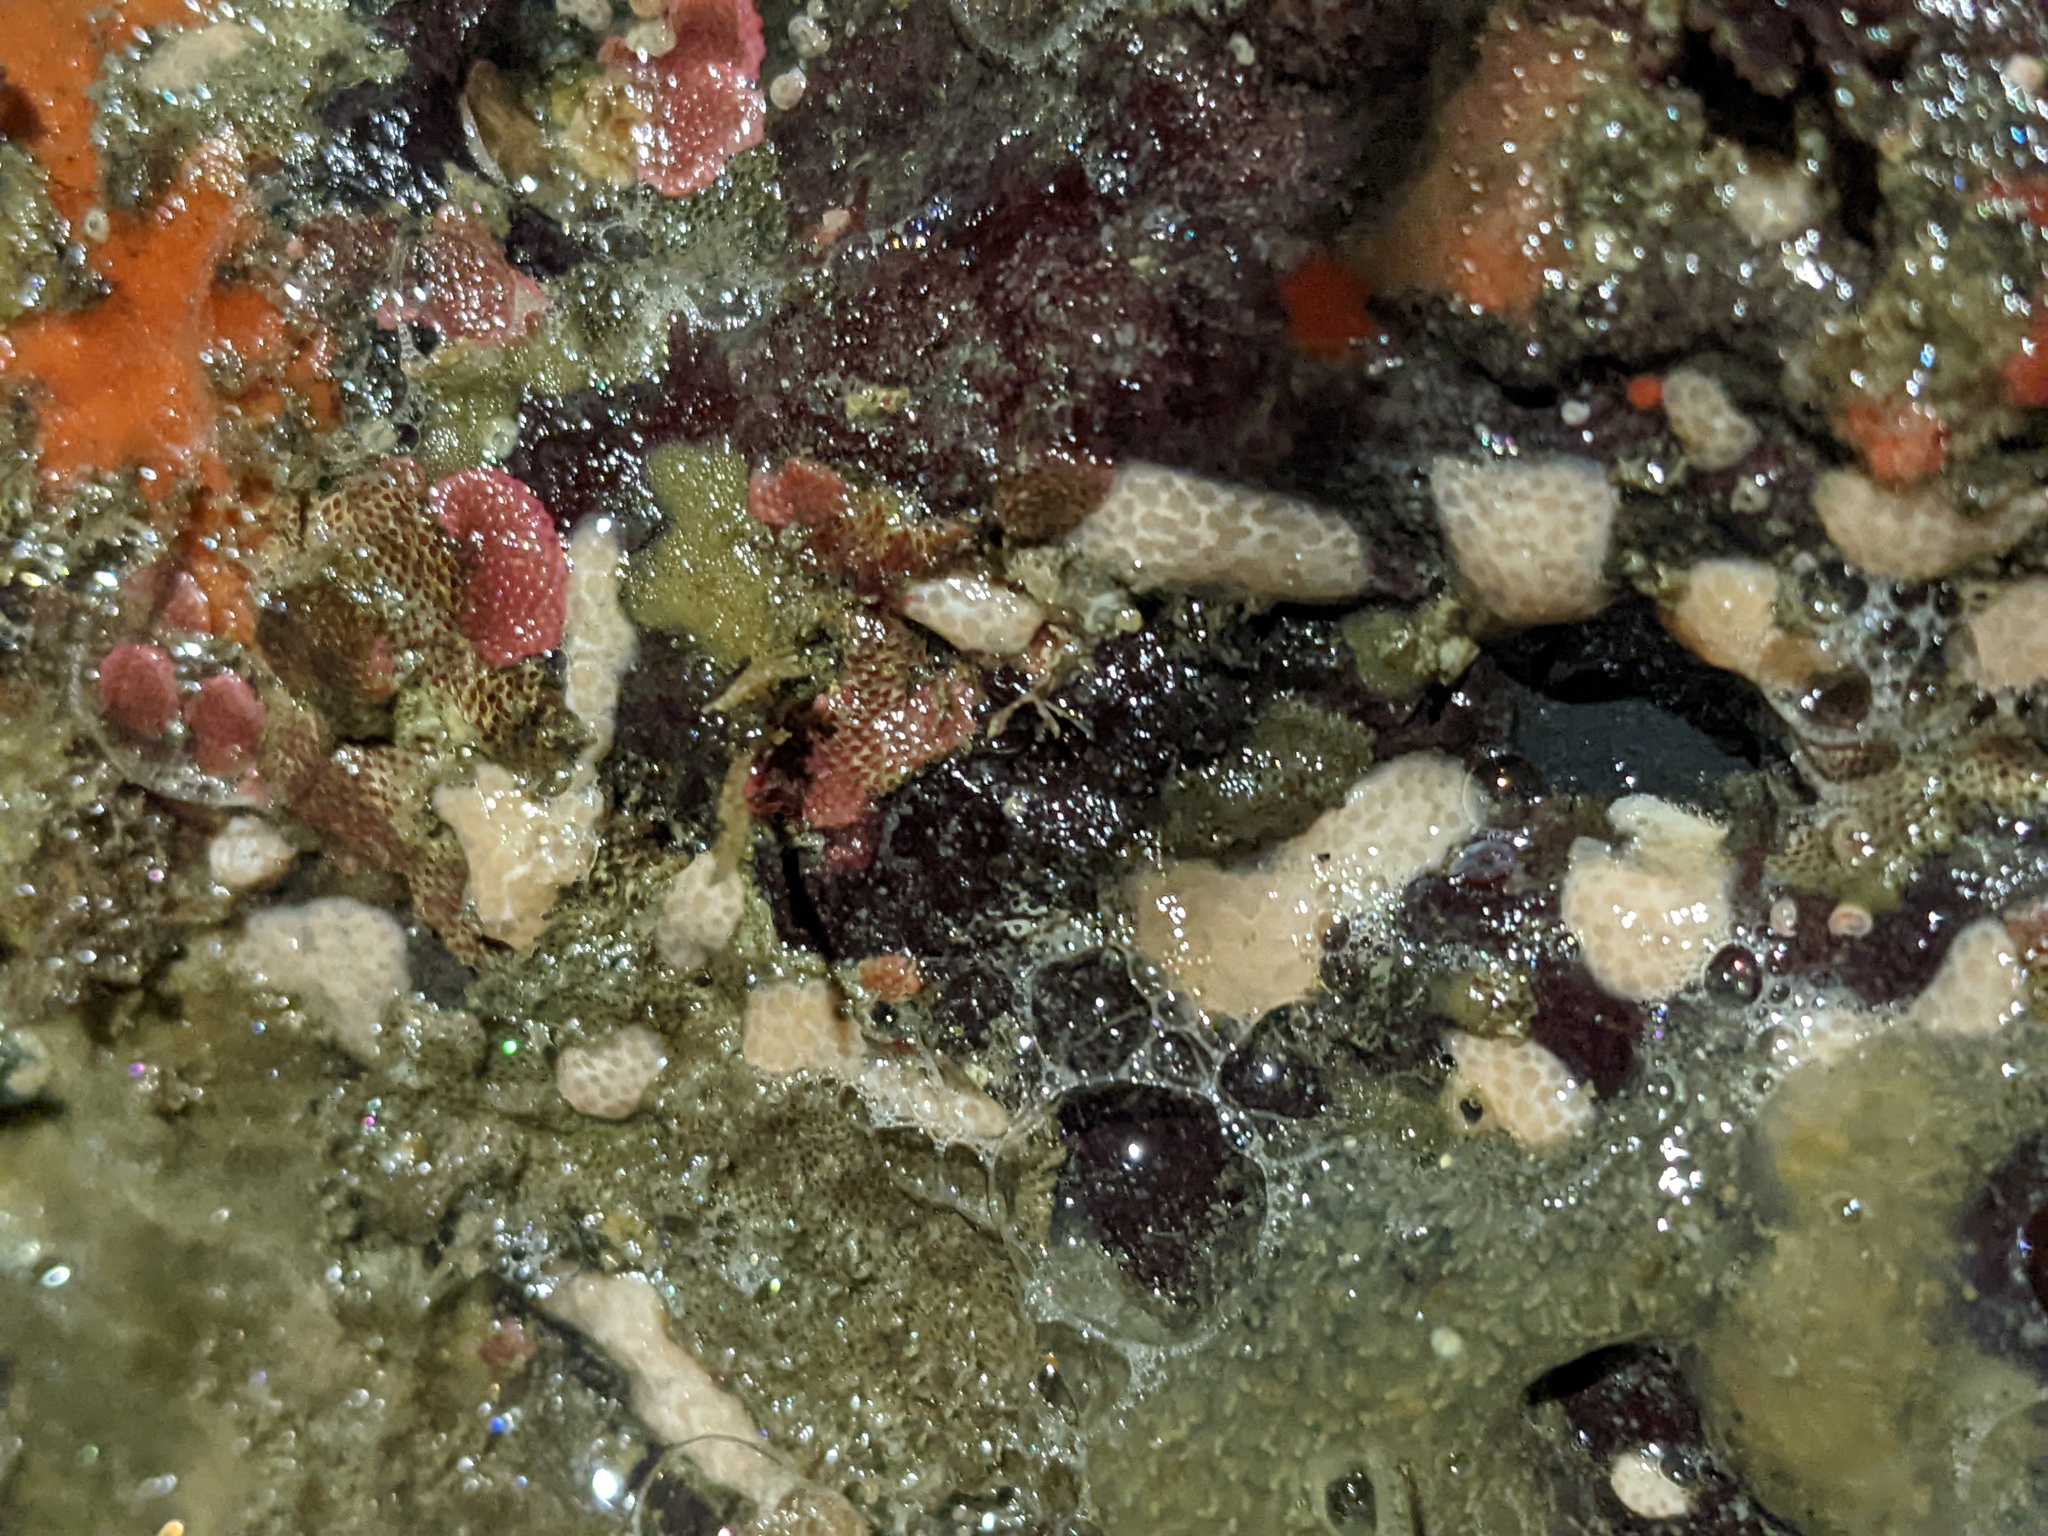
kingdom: Animalia
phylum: Cnidaria
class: Anthozoa
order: Malacalcyonacea
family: Discophytidae
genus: Discophyton
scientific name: Discophyton rudyi
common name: White disc soft coral
